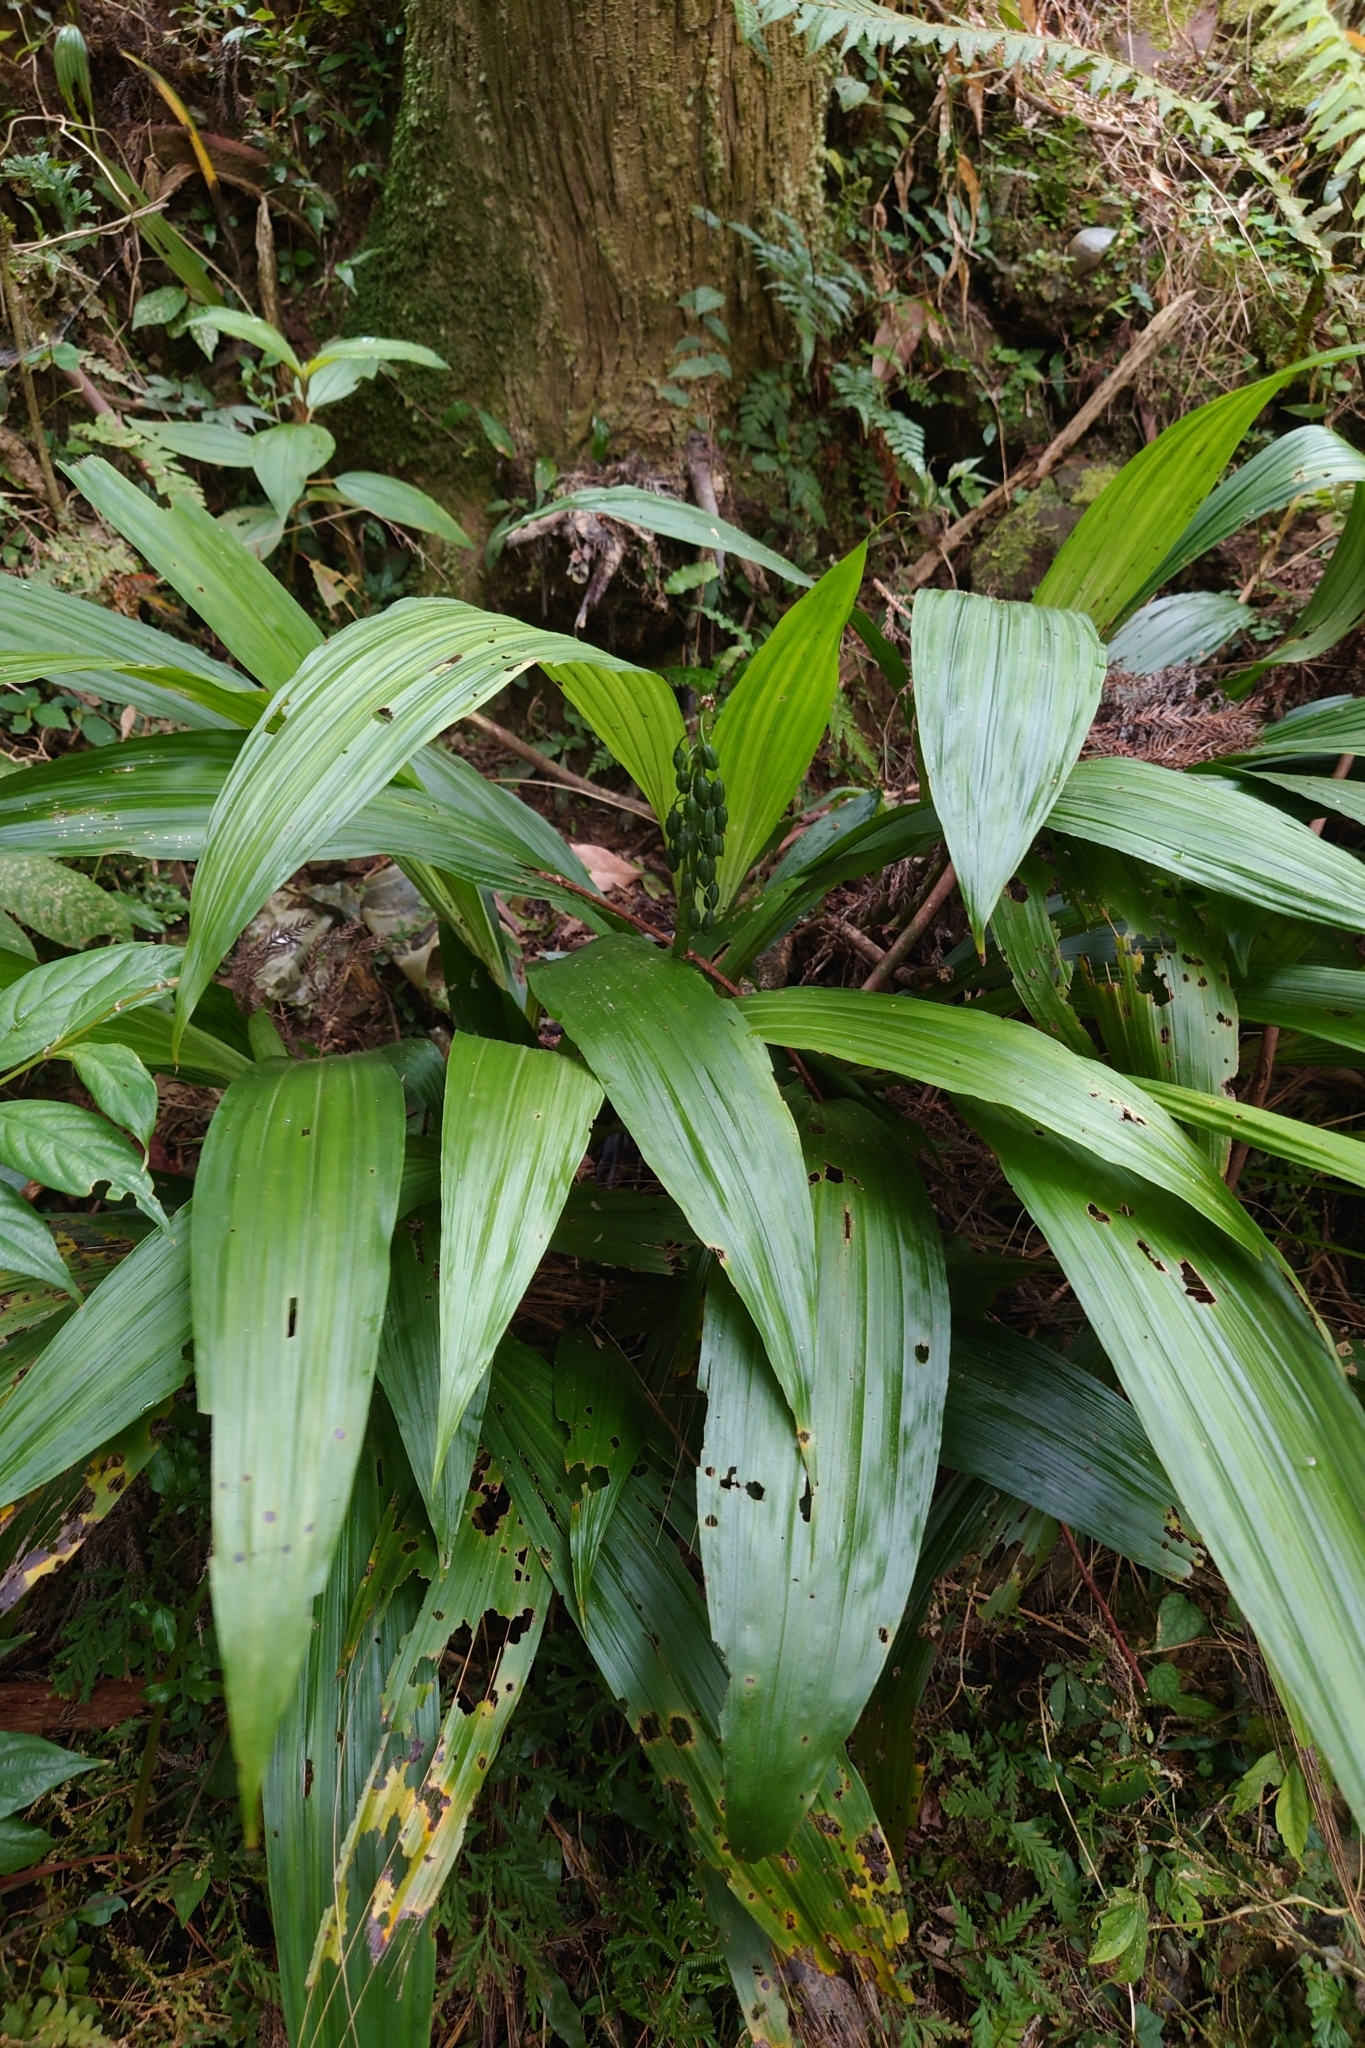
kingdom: Plantae
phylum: Tracheophyta
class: Liliopsida
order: Asparagales
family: Orchidaceae
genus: Calanthe
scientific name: Calanthe formosana
